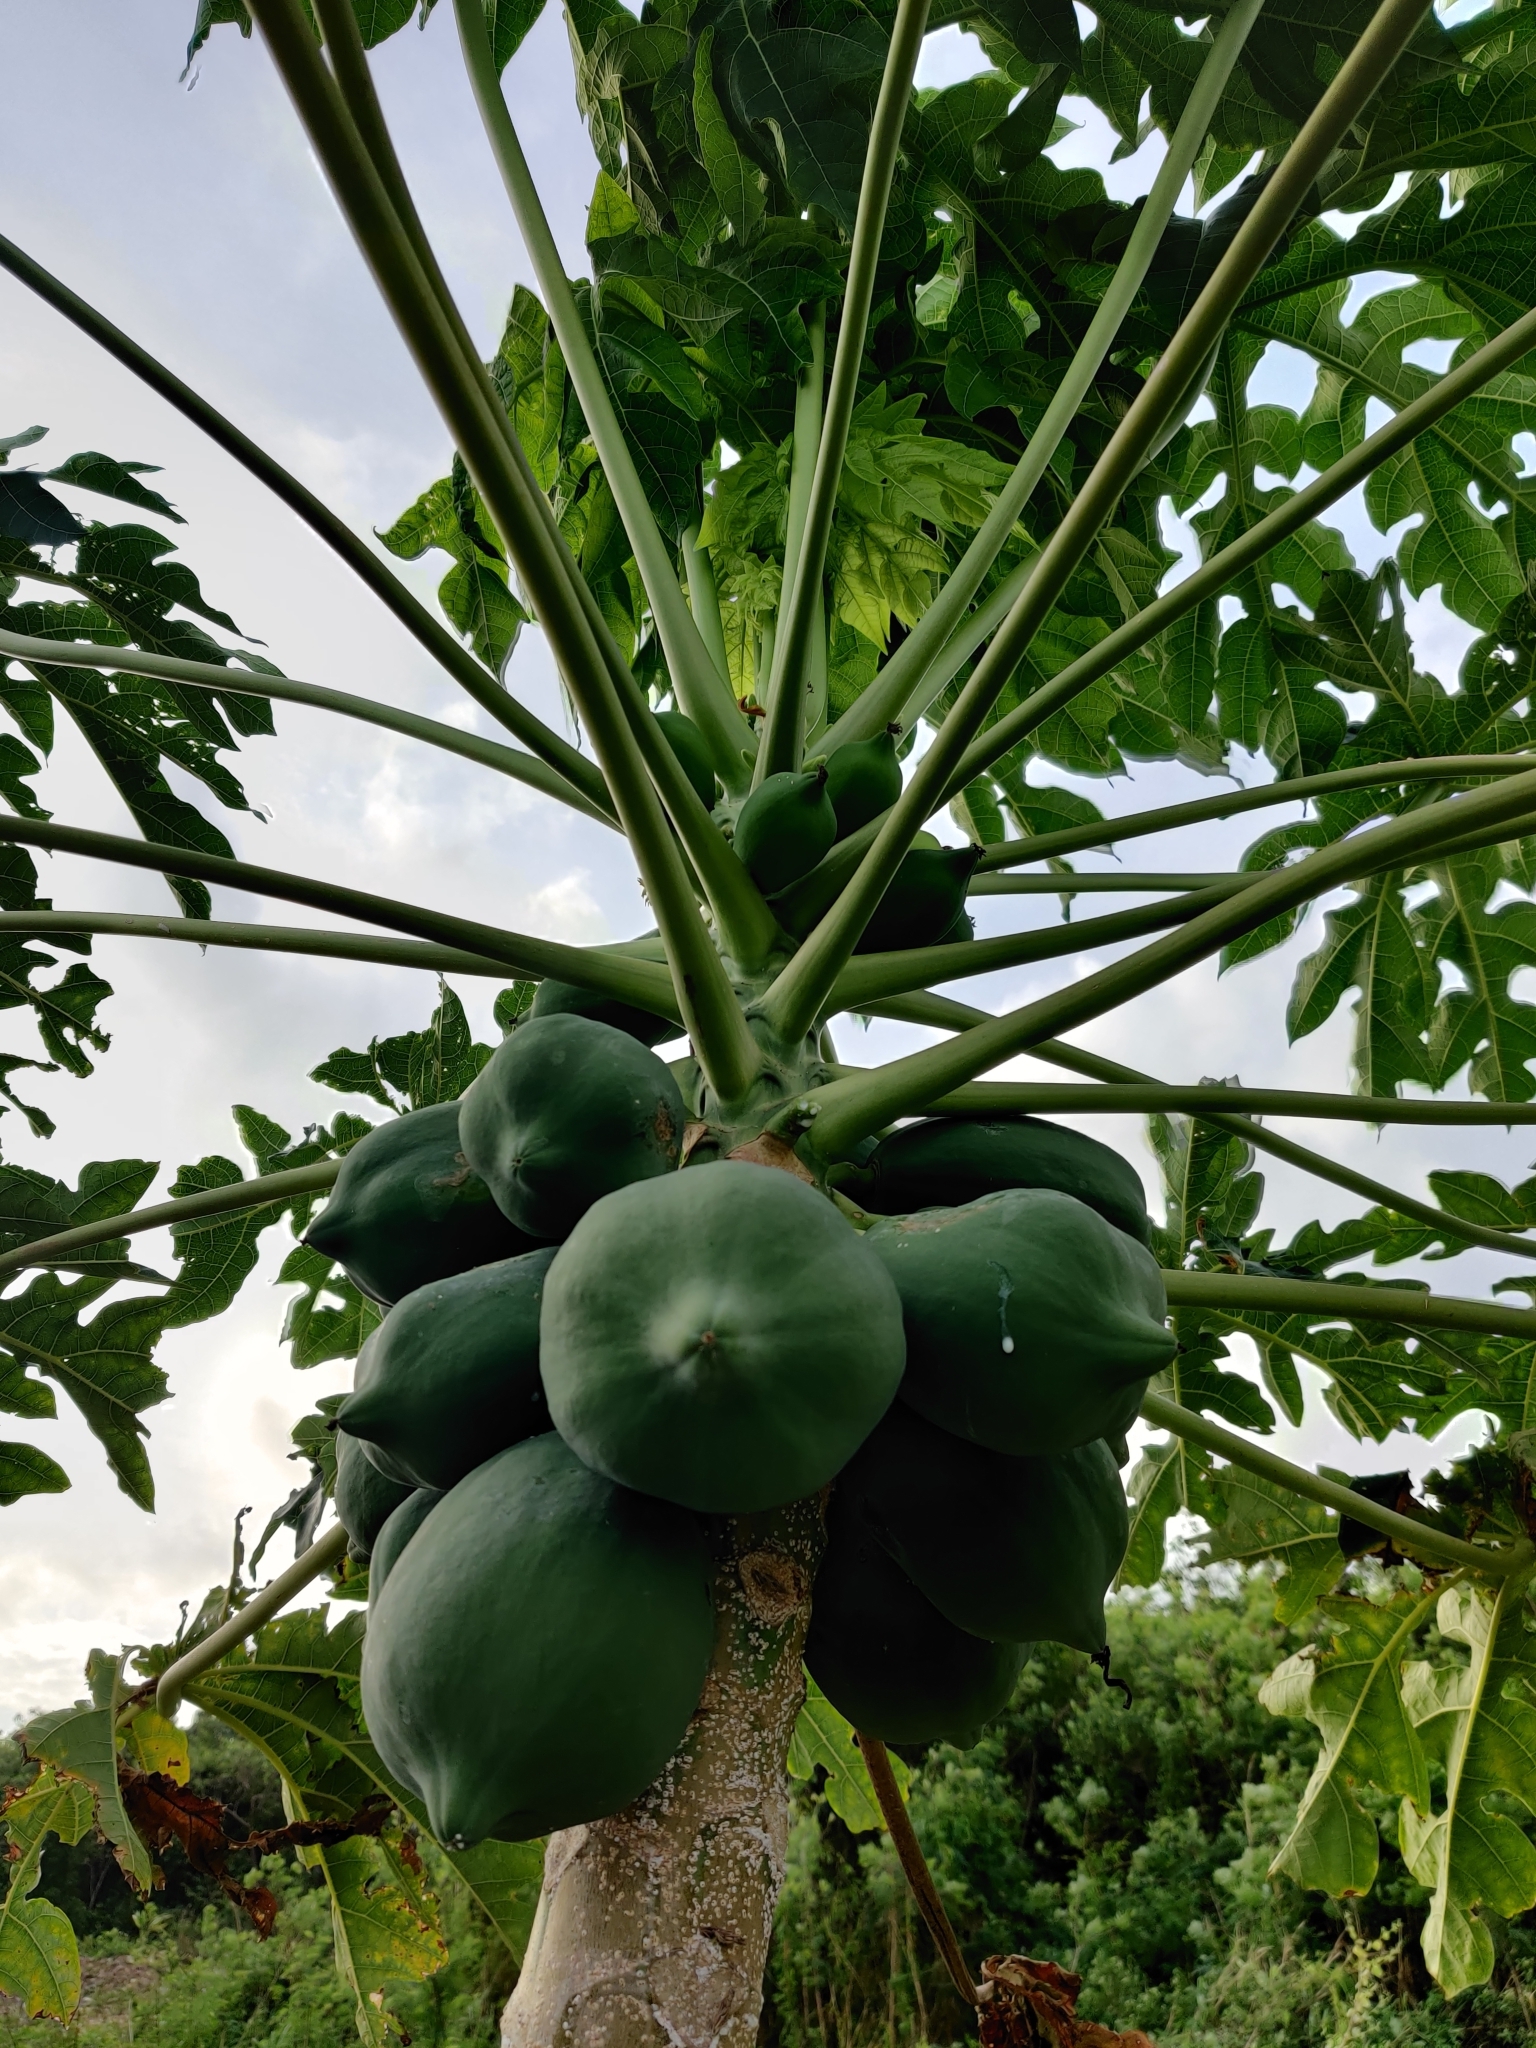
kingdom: Plantae
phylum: Tracheophyta
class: Magnoliopsida
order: Brassicales
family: Caricaceae
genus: Carica
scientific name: Carica papaya
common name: Papaya
